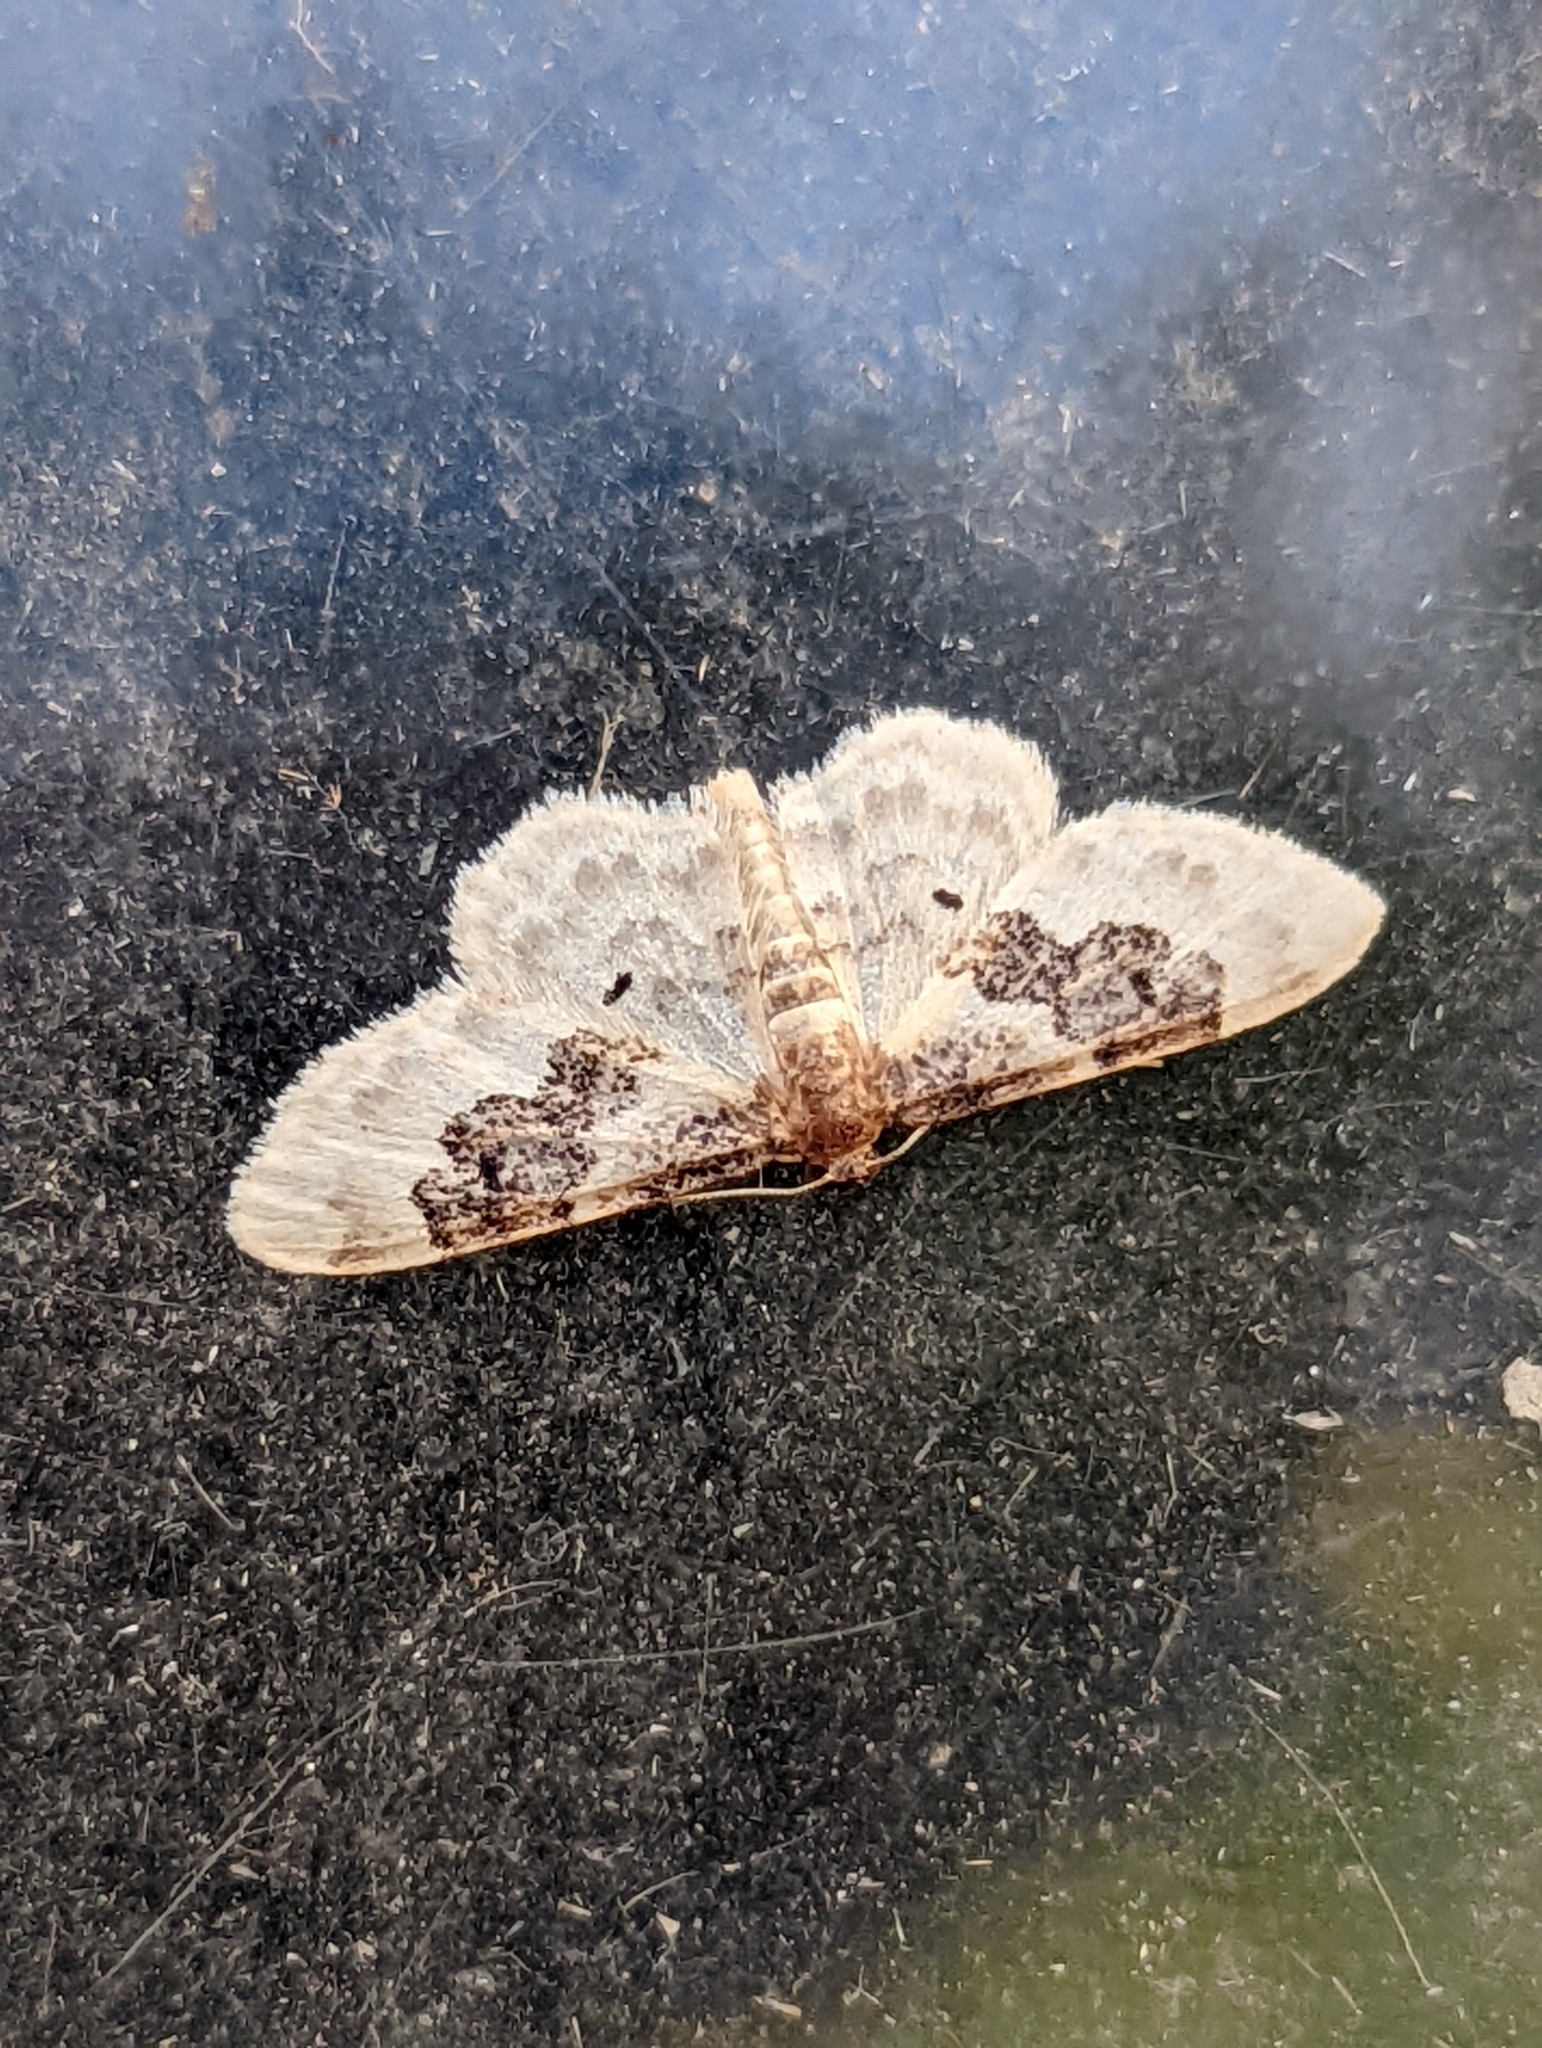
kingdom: Animalia
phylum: Arthropoda
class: Insecta
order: Lepidoptera
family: Geometridae
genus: Idaea
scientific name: Idaea rusticata
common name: Least carpet
